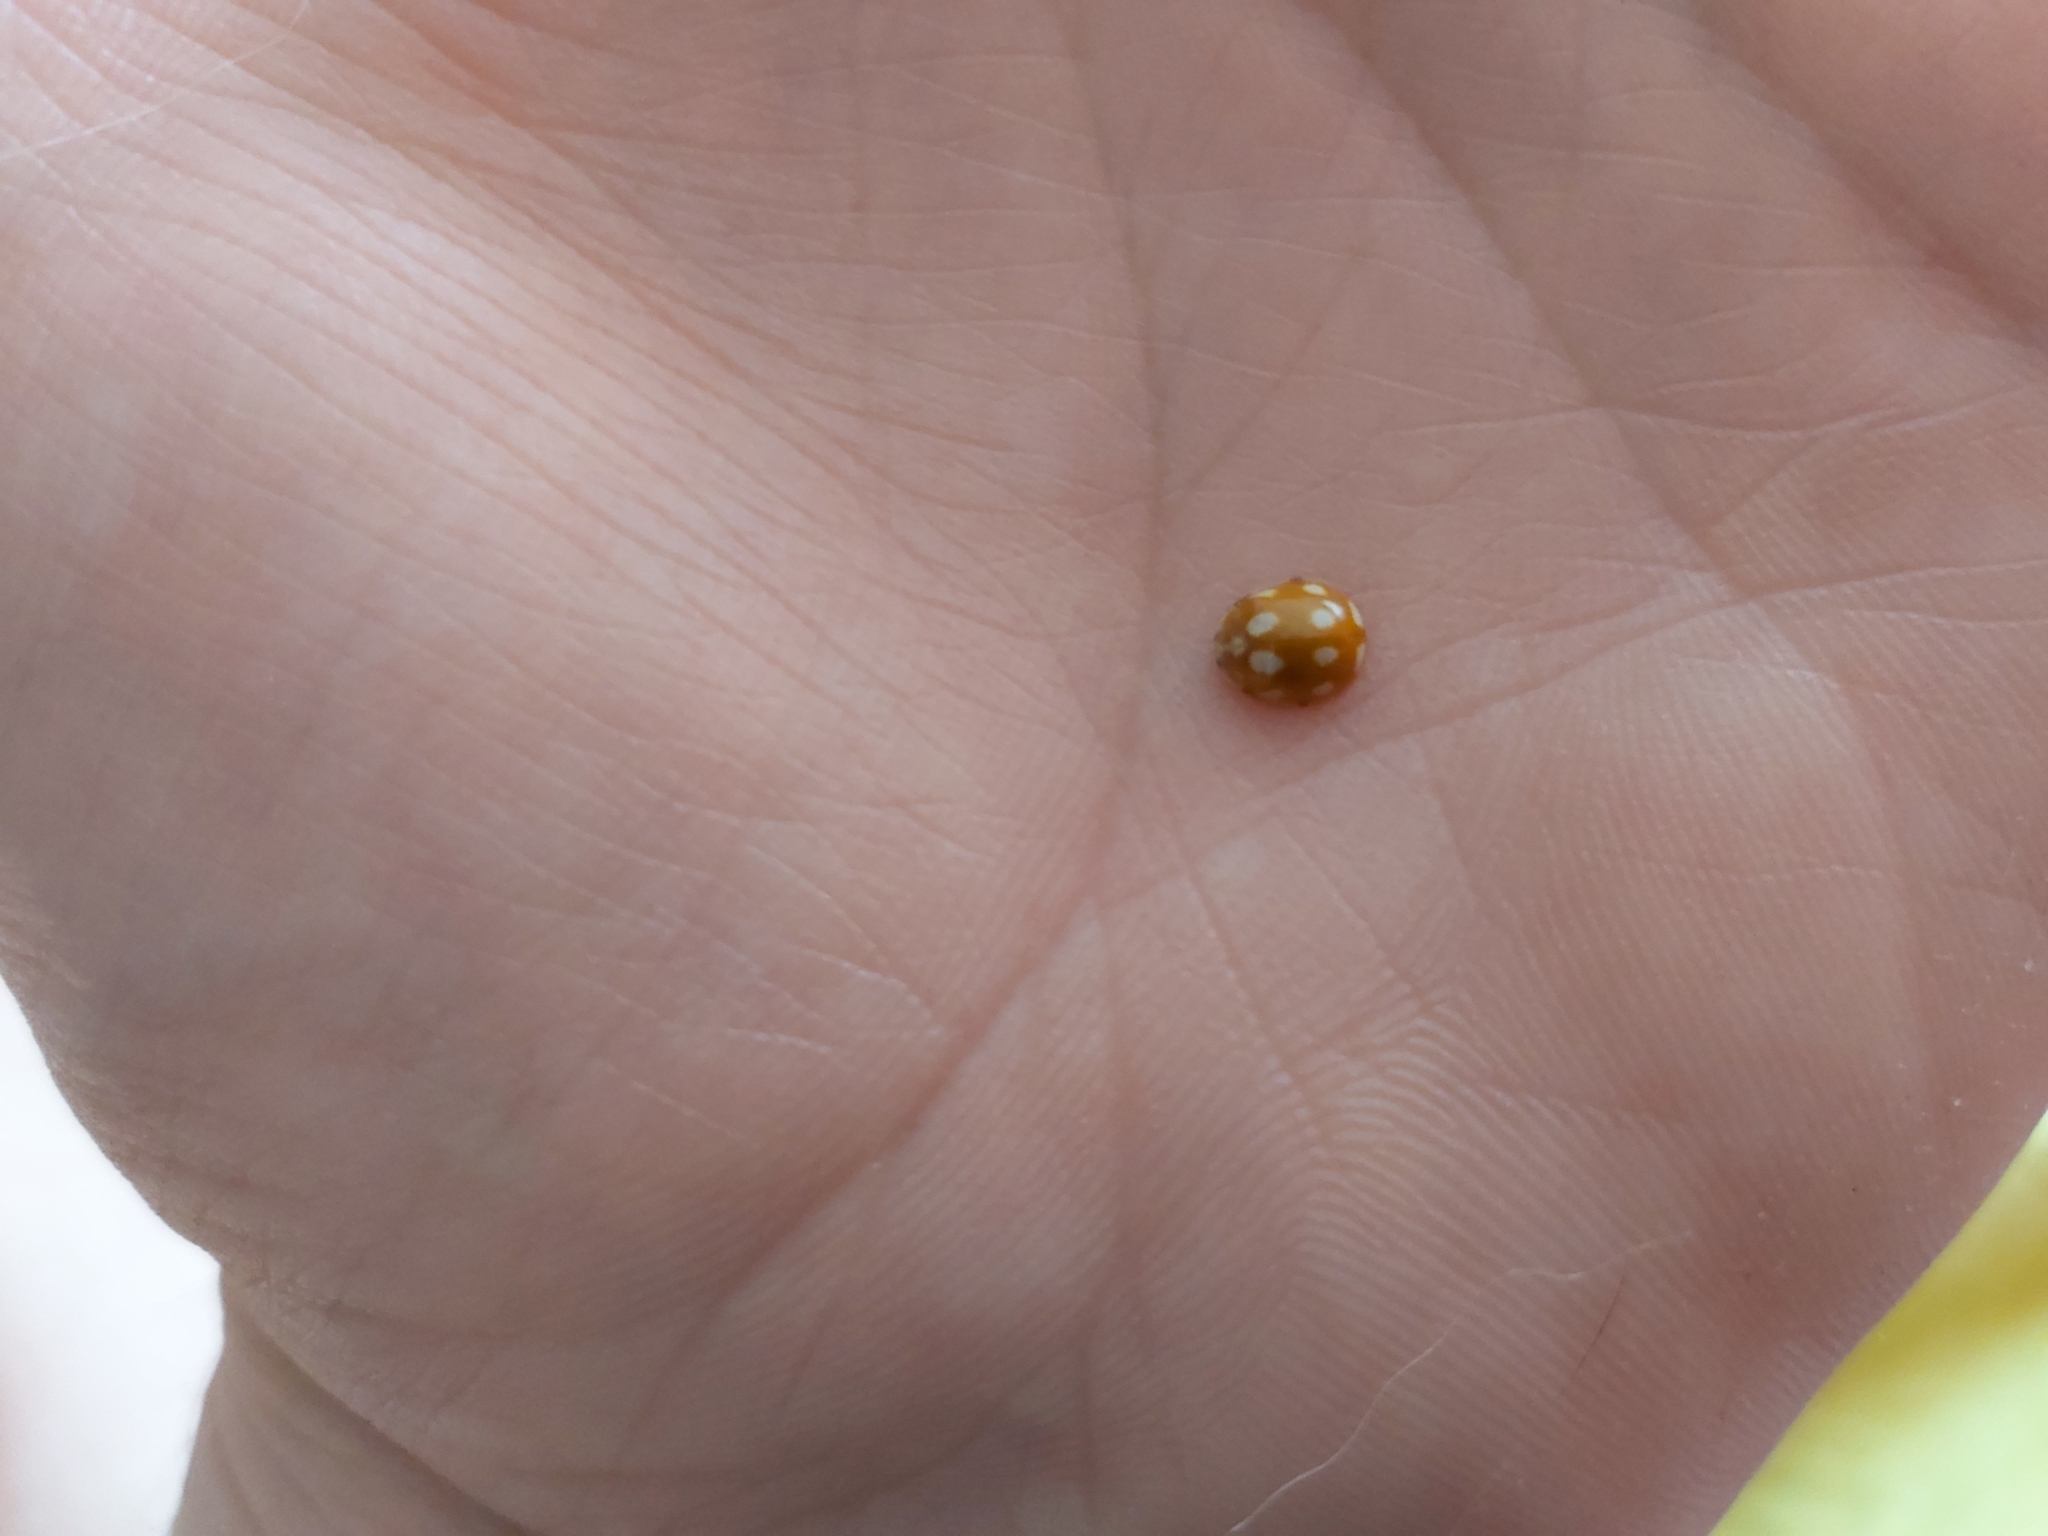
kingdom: Animalia
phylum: Arthropoda
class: Insecta
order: Coleoptera
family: Coccinellidae
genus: Calvia
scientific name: Calvia decemguttata
